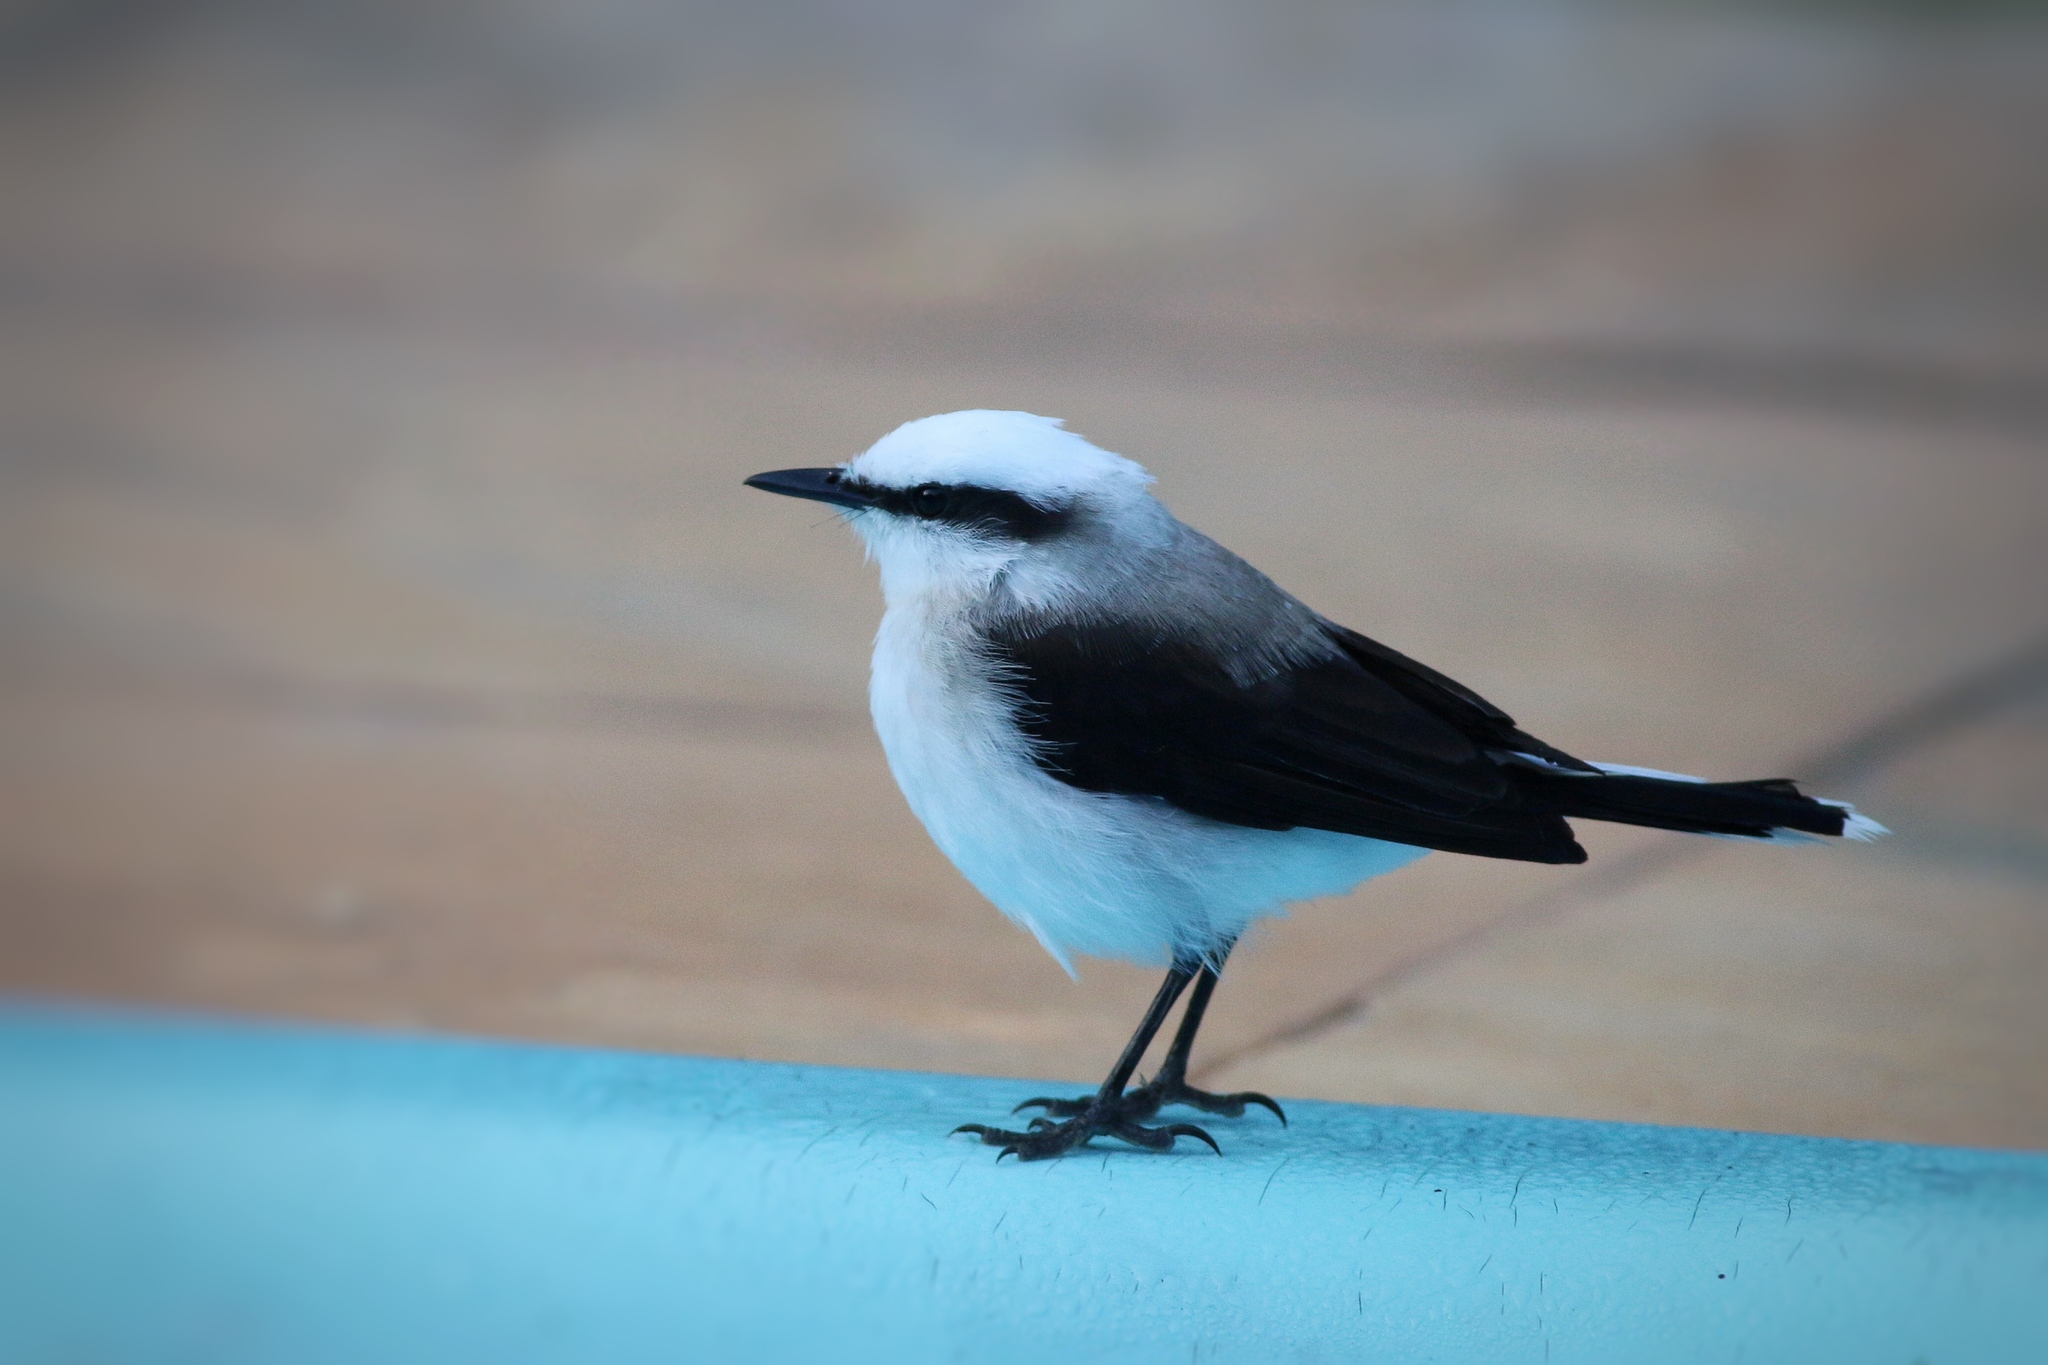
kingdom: Animalia
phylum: Chordata
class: Aves
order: Passeriformes
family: Tyrannidae
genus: Fluvicola
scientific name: Fluvicola nengeta
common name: Masked water tyrant
